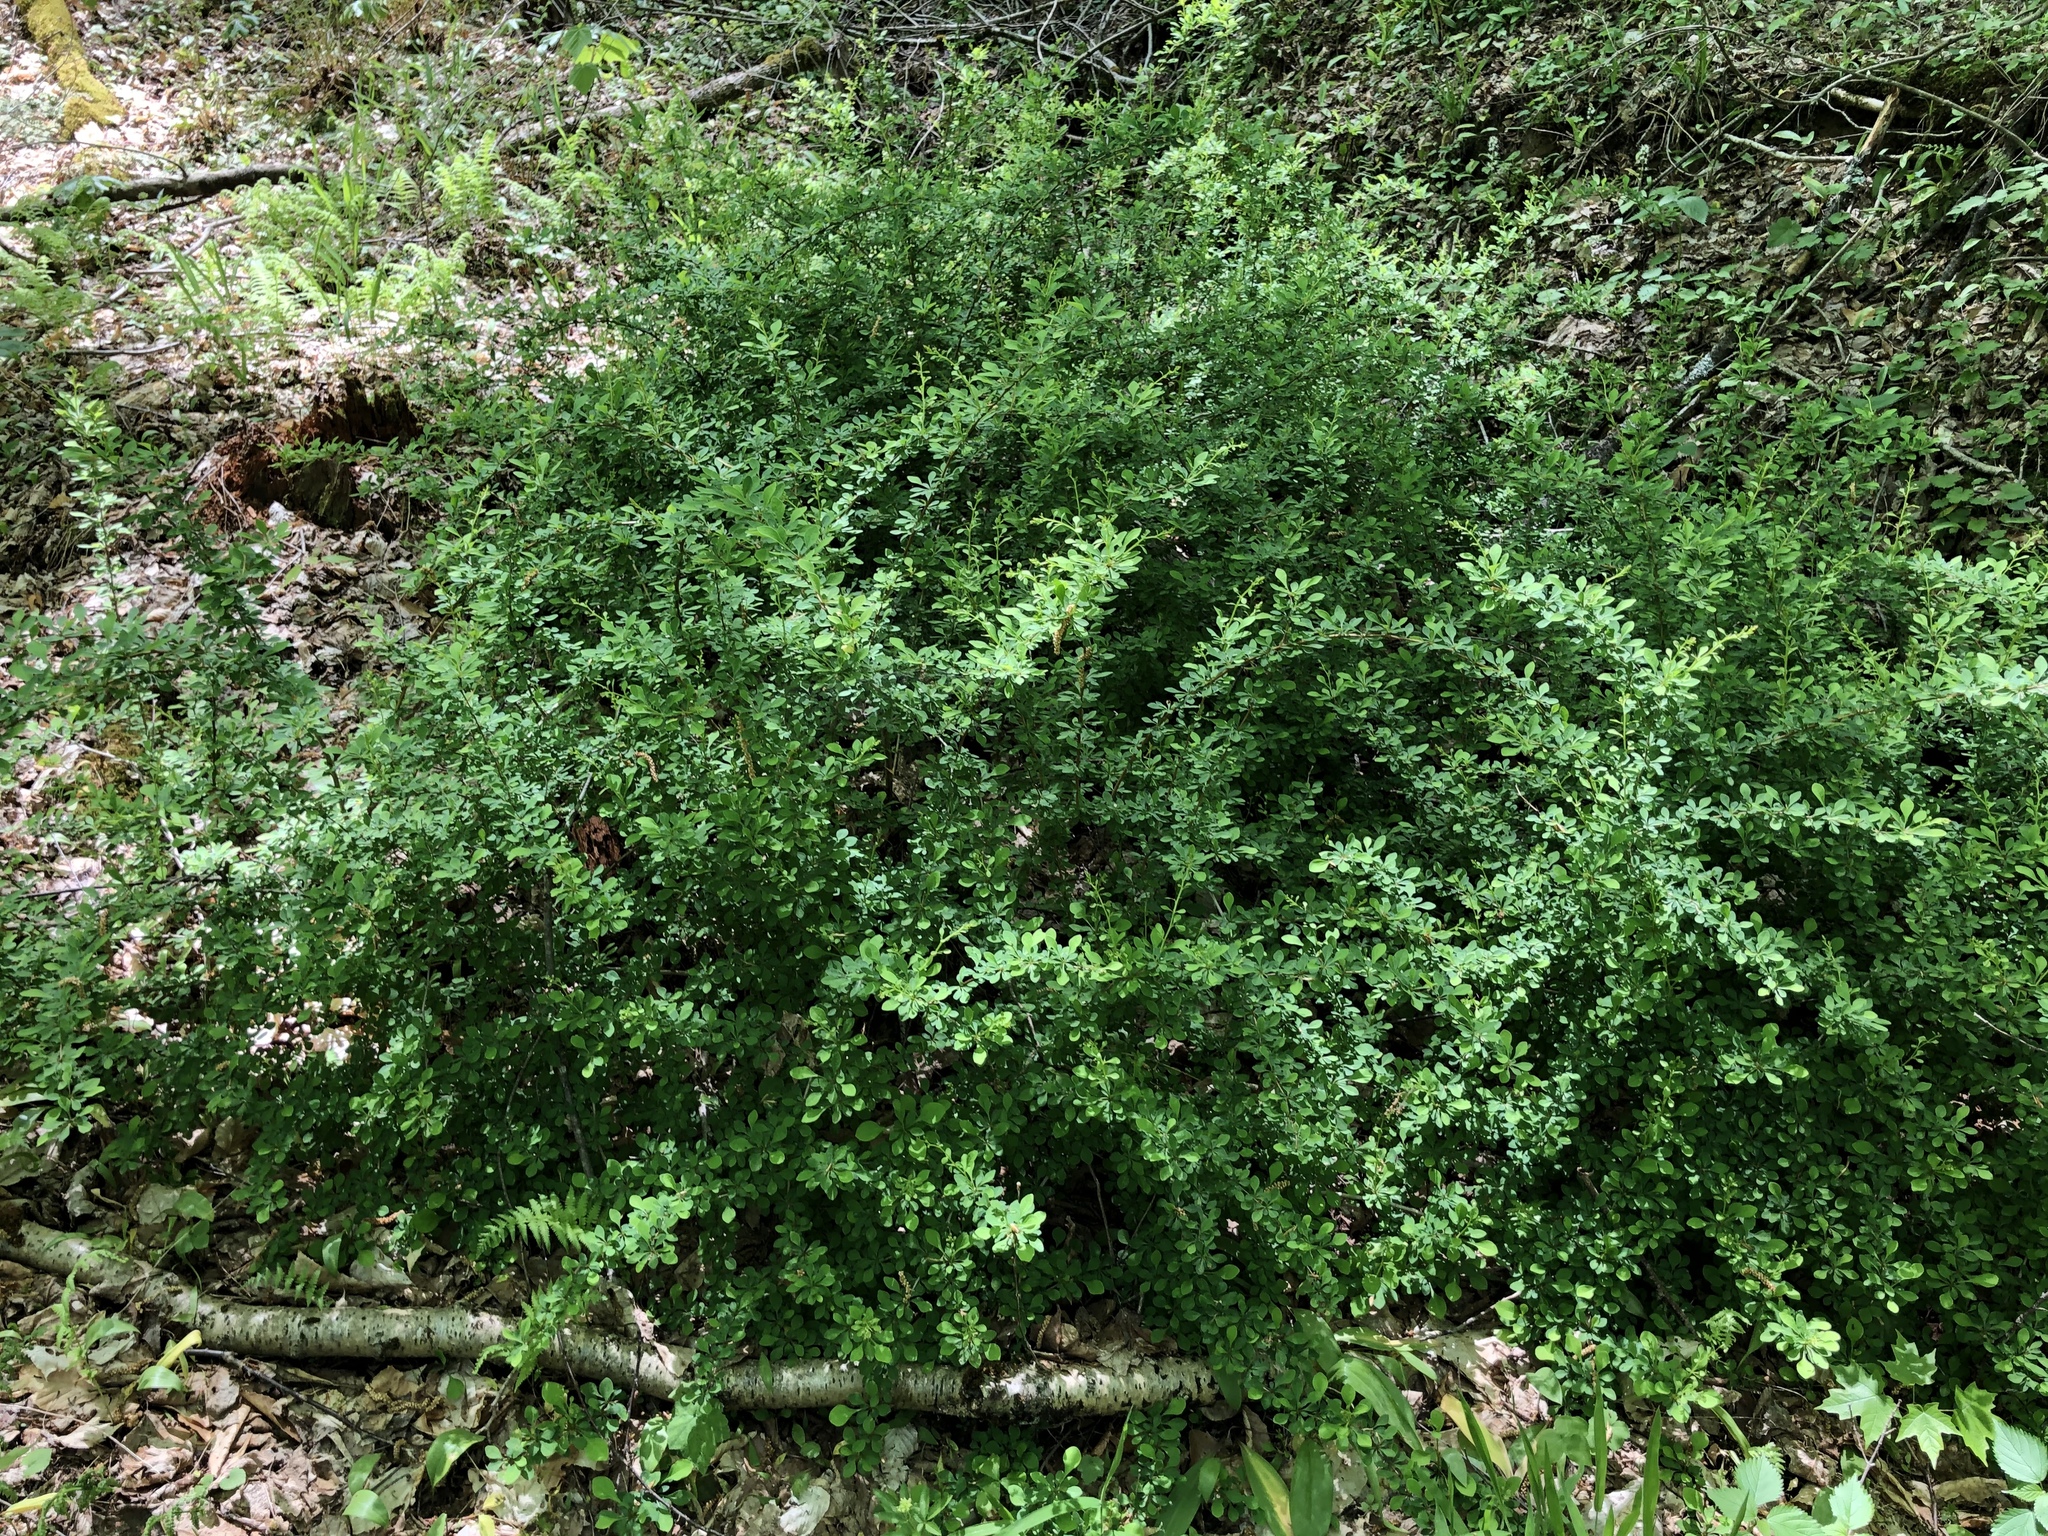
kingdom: Plantae
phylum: Tracheophyta
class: Magnoliopsida
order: Ranunculales
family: Berberidaceae
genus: Berberis
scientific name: Berberis thunbergii
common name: Japanese barberry
